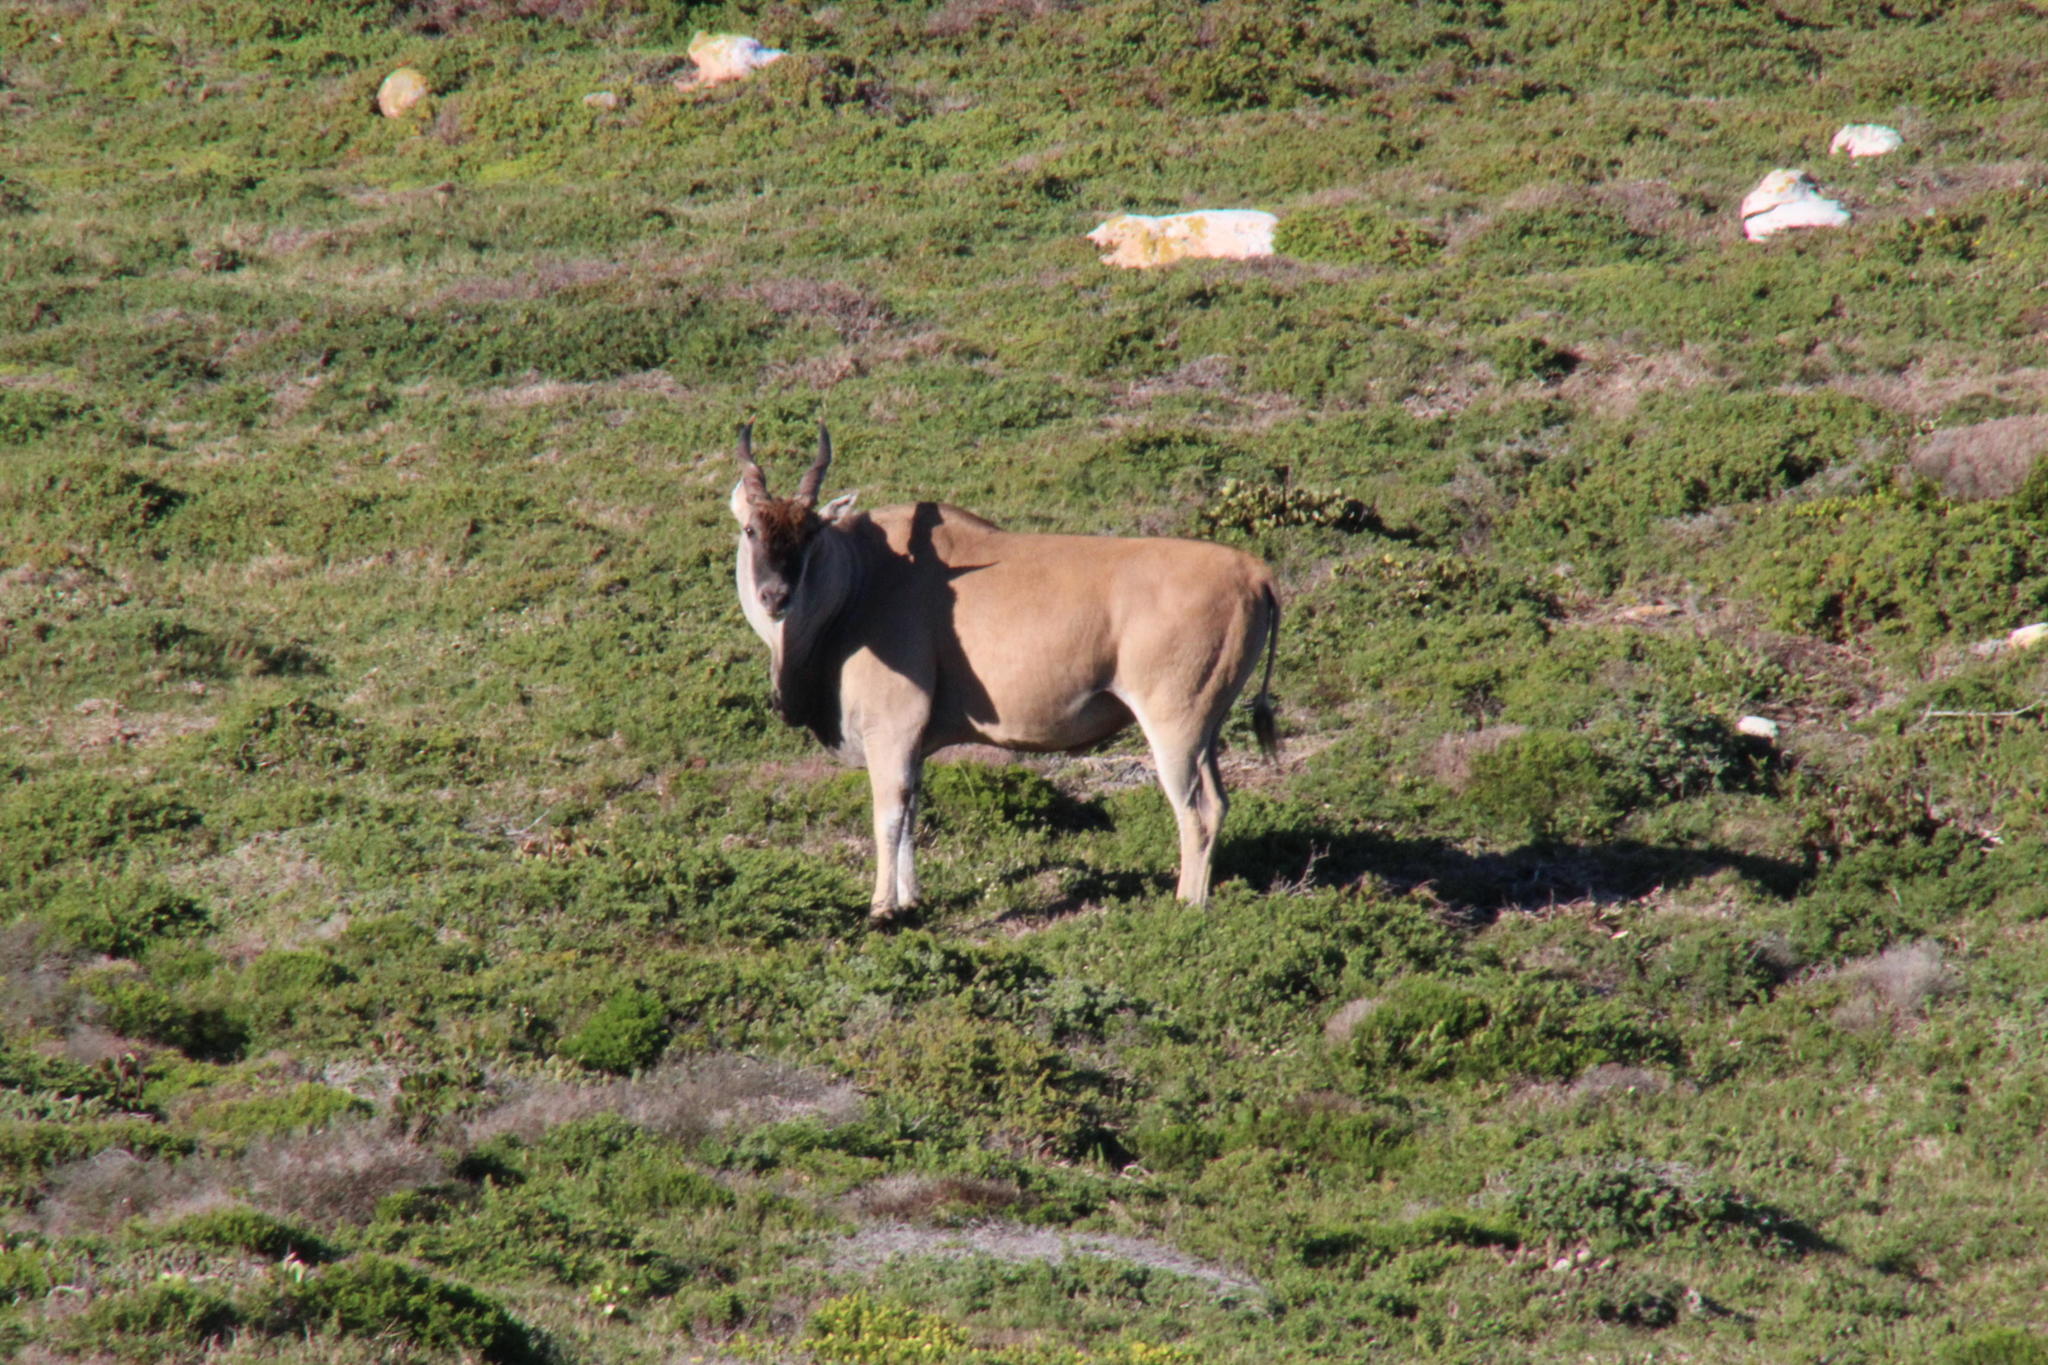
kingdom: Animalia
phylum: Chordata
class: Mammalia
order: Artiodactyla
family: Bovidae
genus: Taurotragus
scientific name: Taurotragus oryx
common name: Common eland
